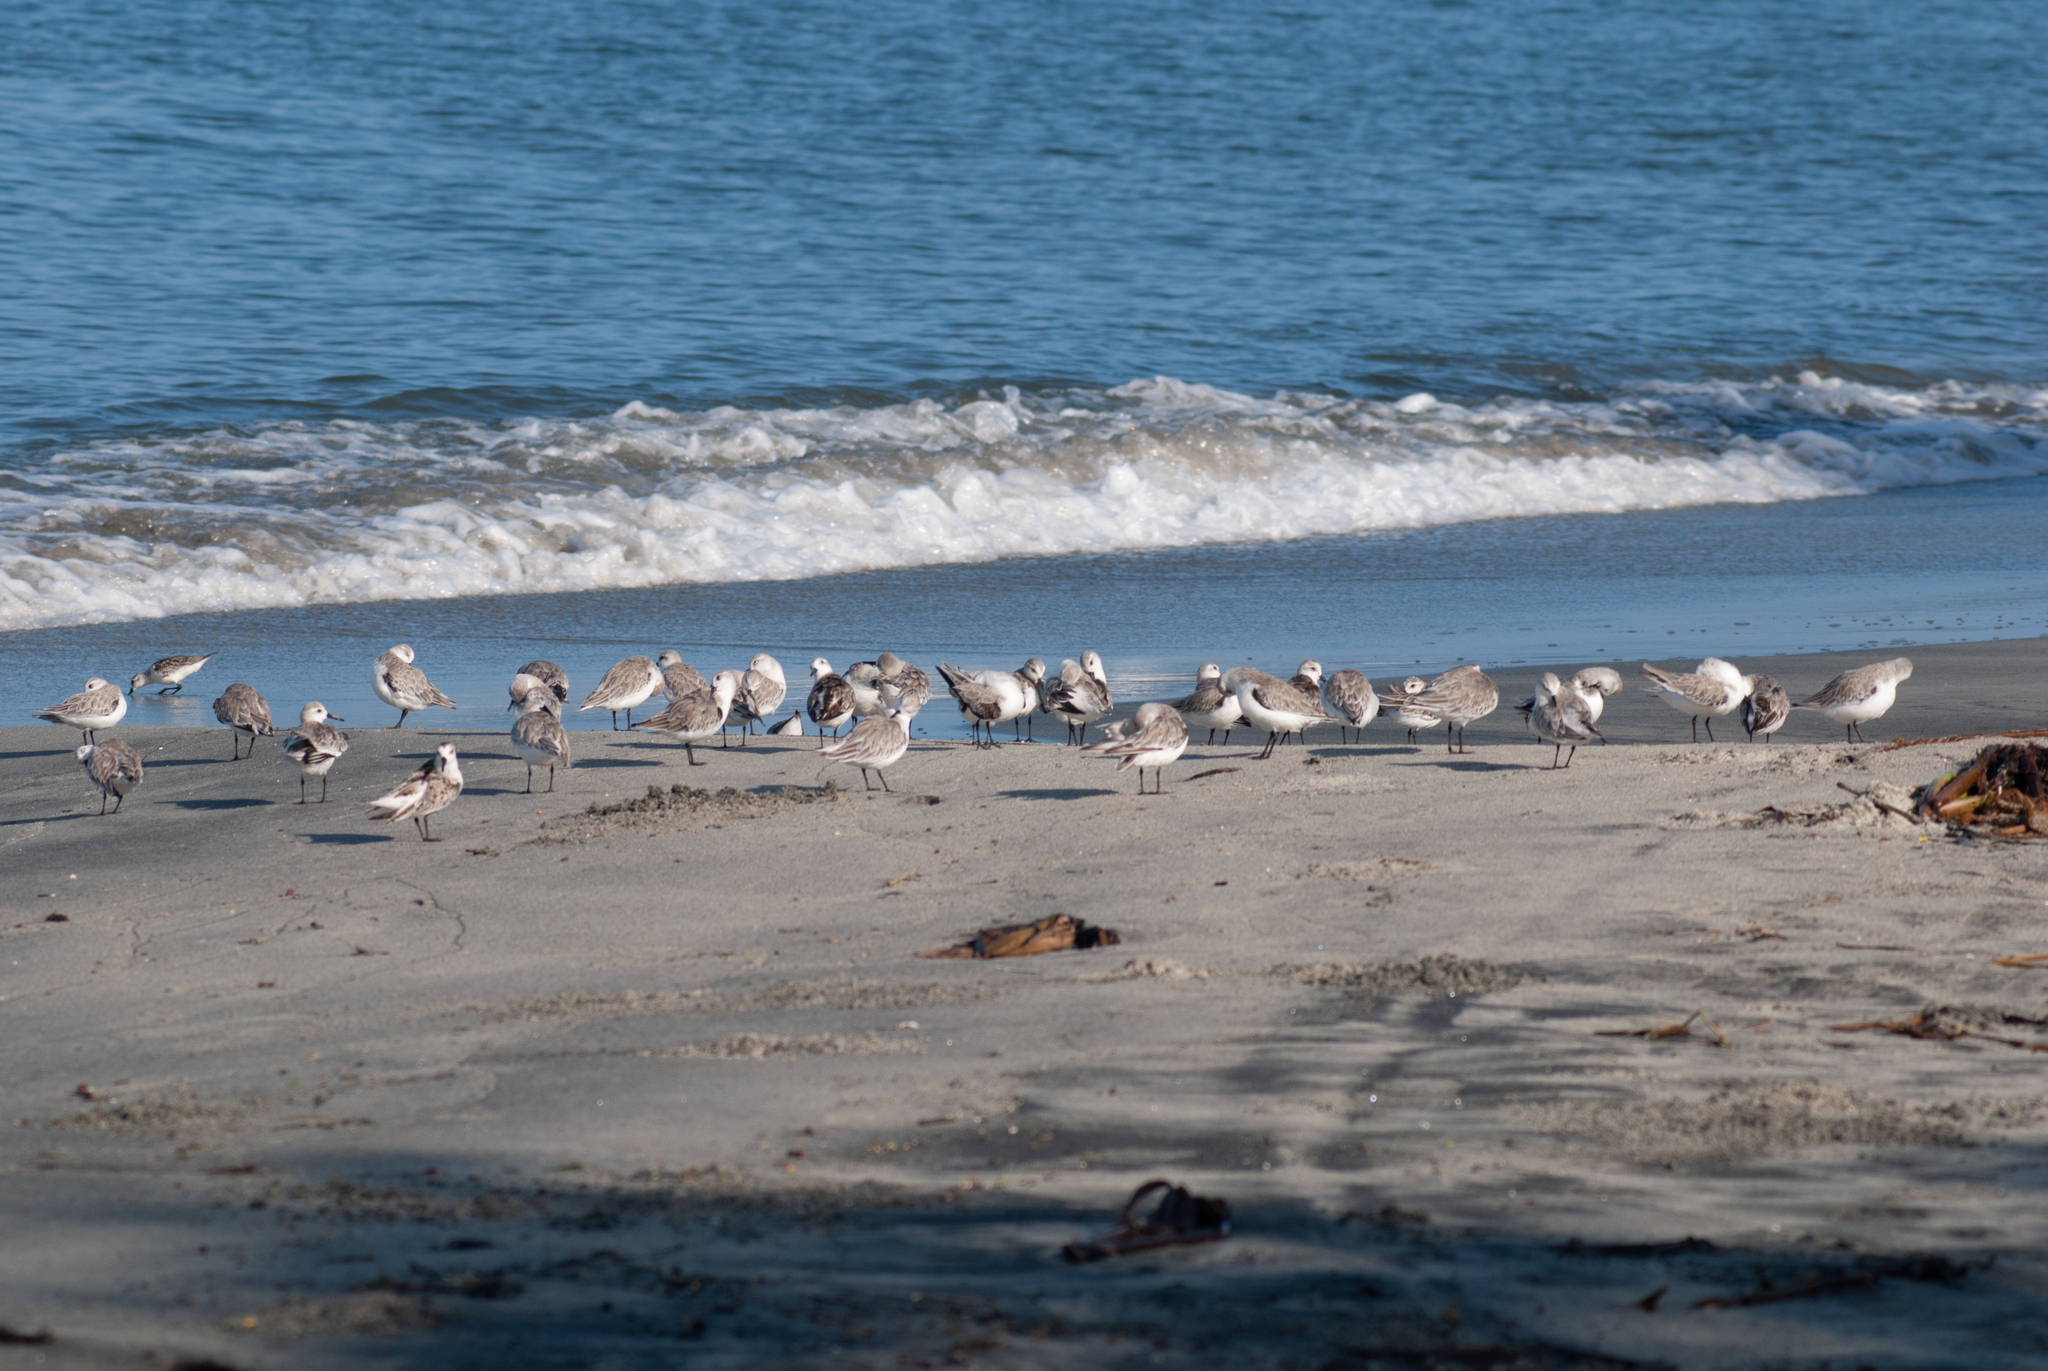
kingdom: Animalia
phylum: Chordata
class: Aves
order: Charadriiformes
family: Scolopacidae
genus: Calidris
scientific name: Calidris alba
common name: Sanderling
